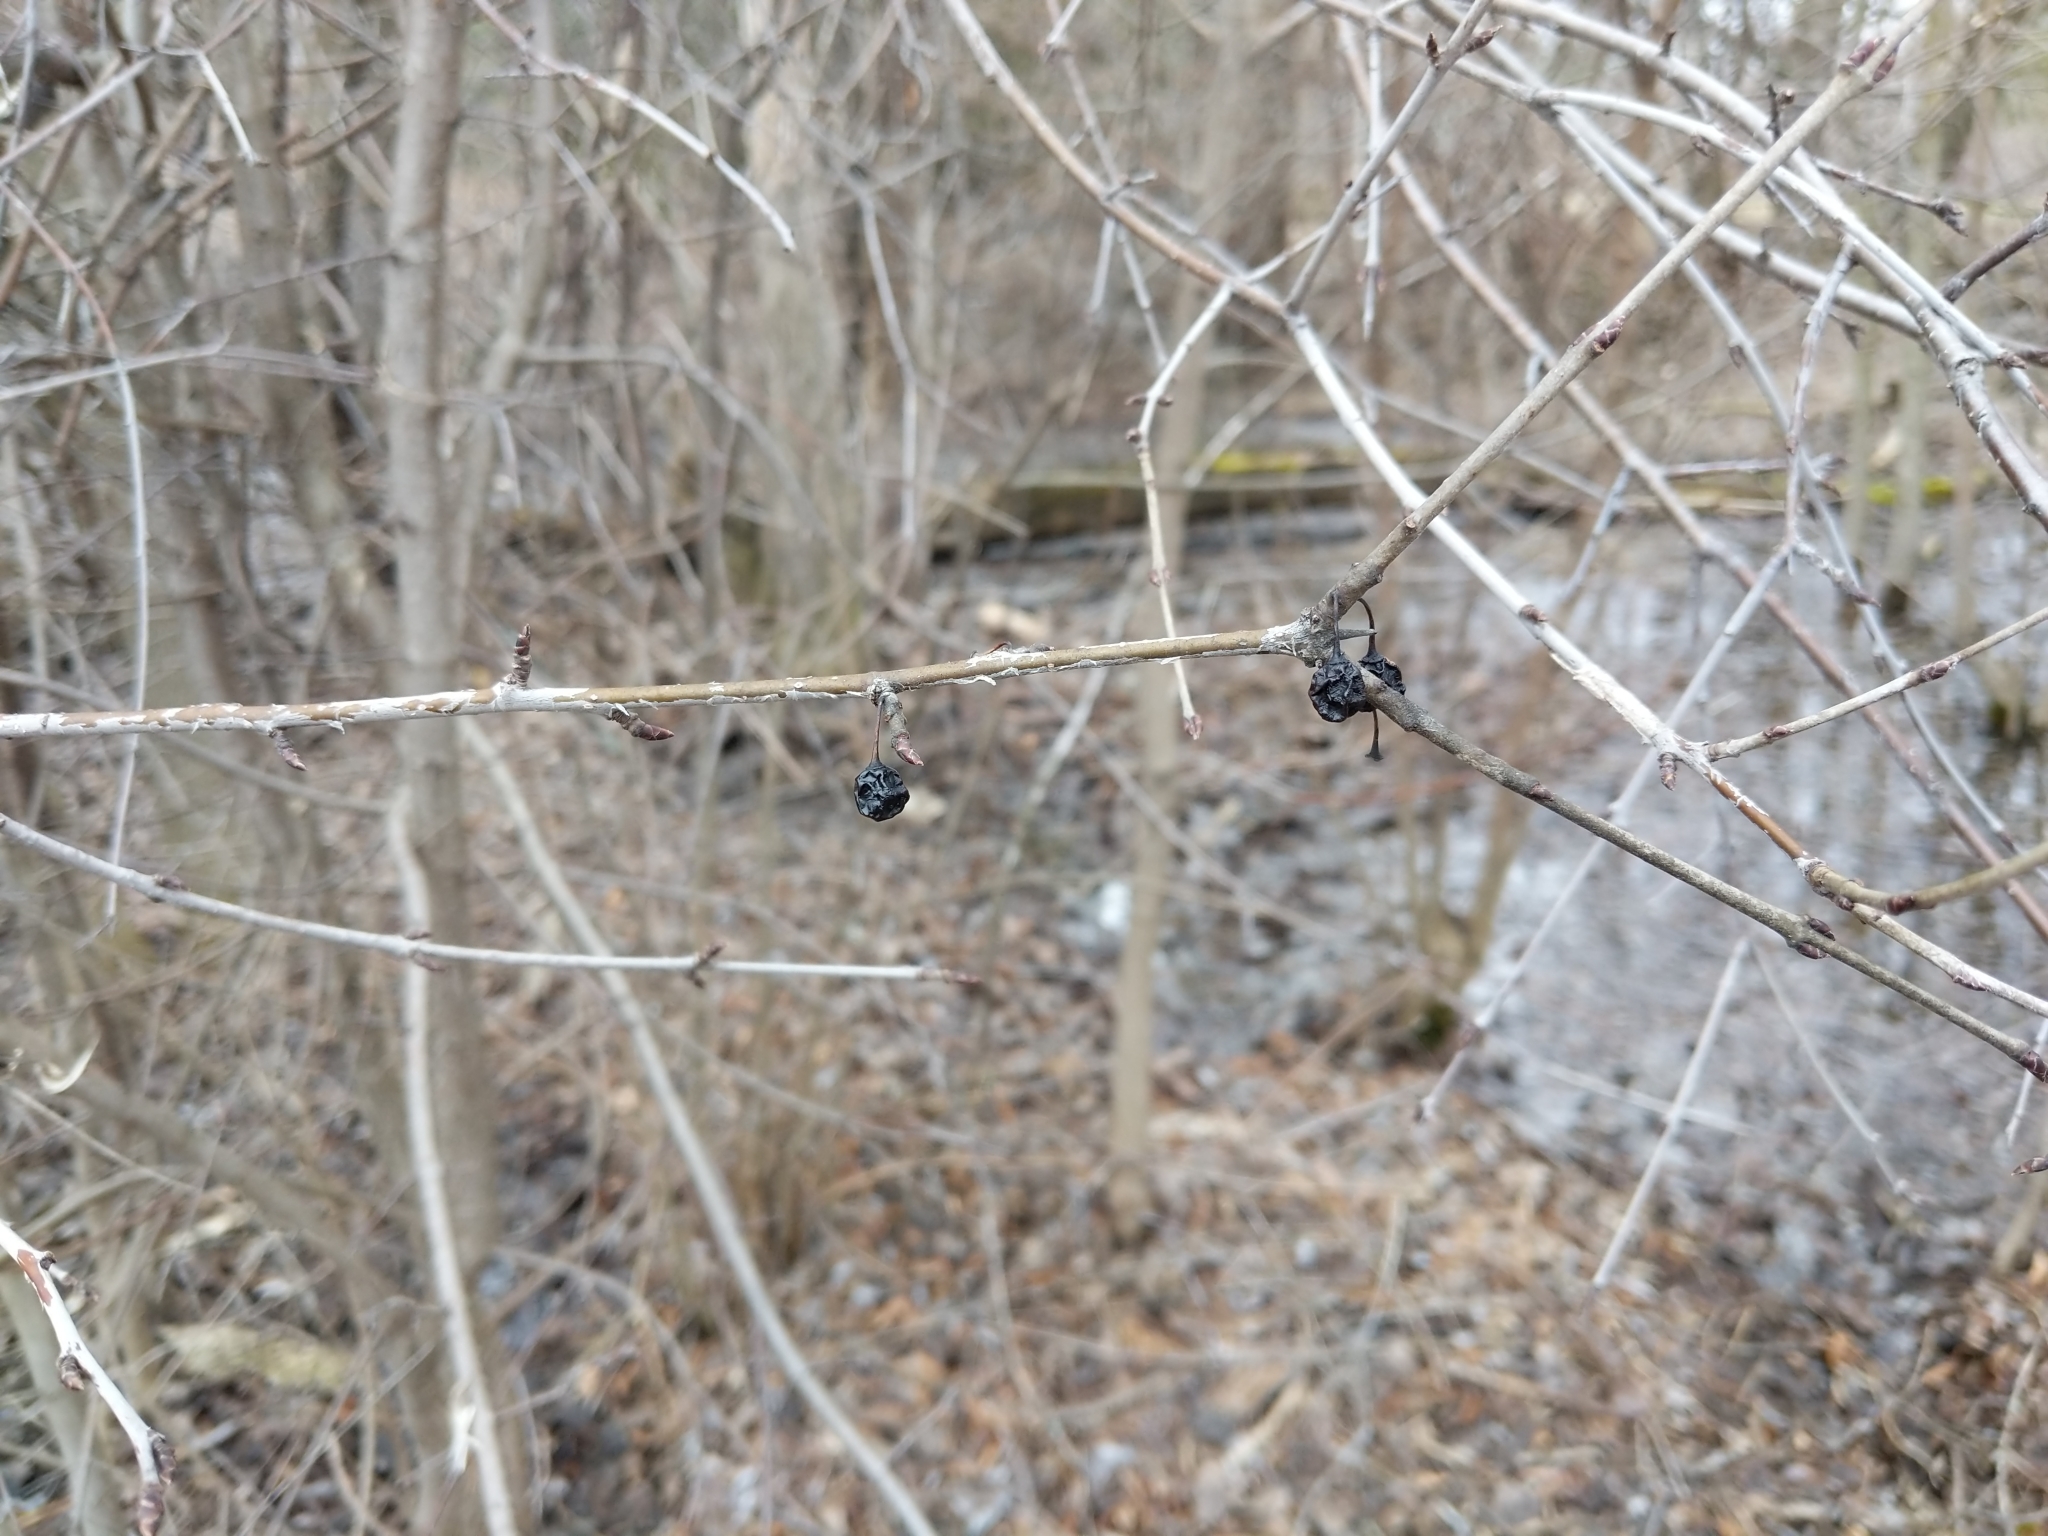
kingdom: Plantae
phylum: Tracheophyta
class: Magnoliopsida
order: Rosales
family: Rhamnaceae
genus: Rhamnus
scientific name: Rhamnus cathartica
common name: Common buckthorn
